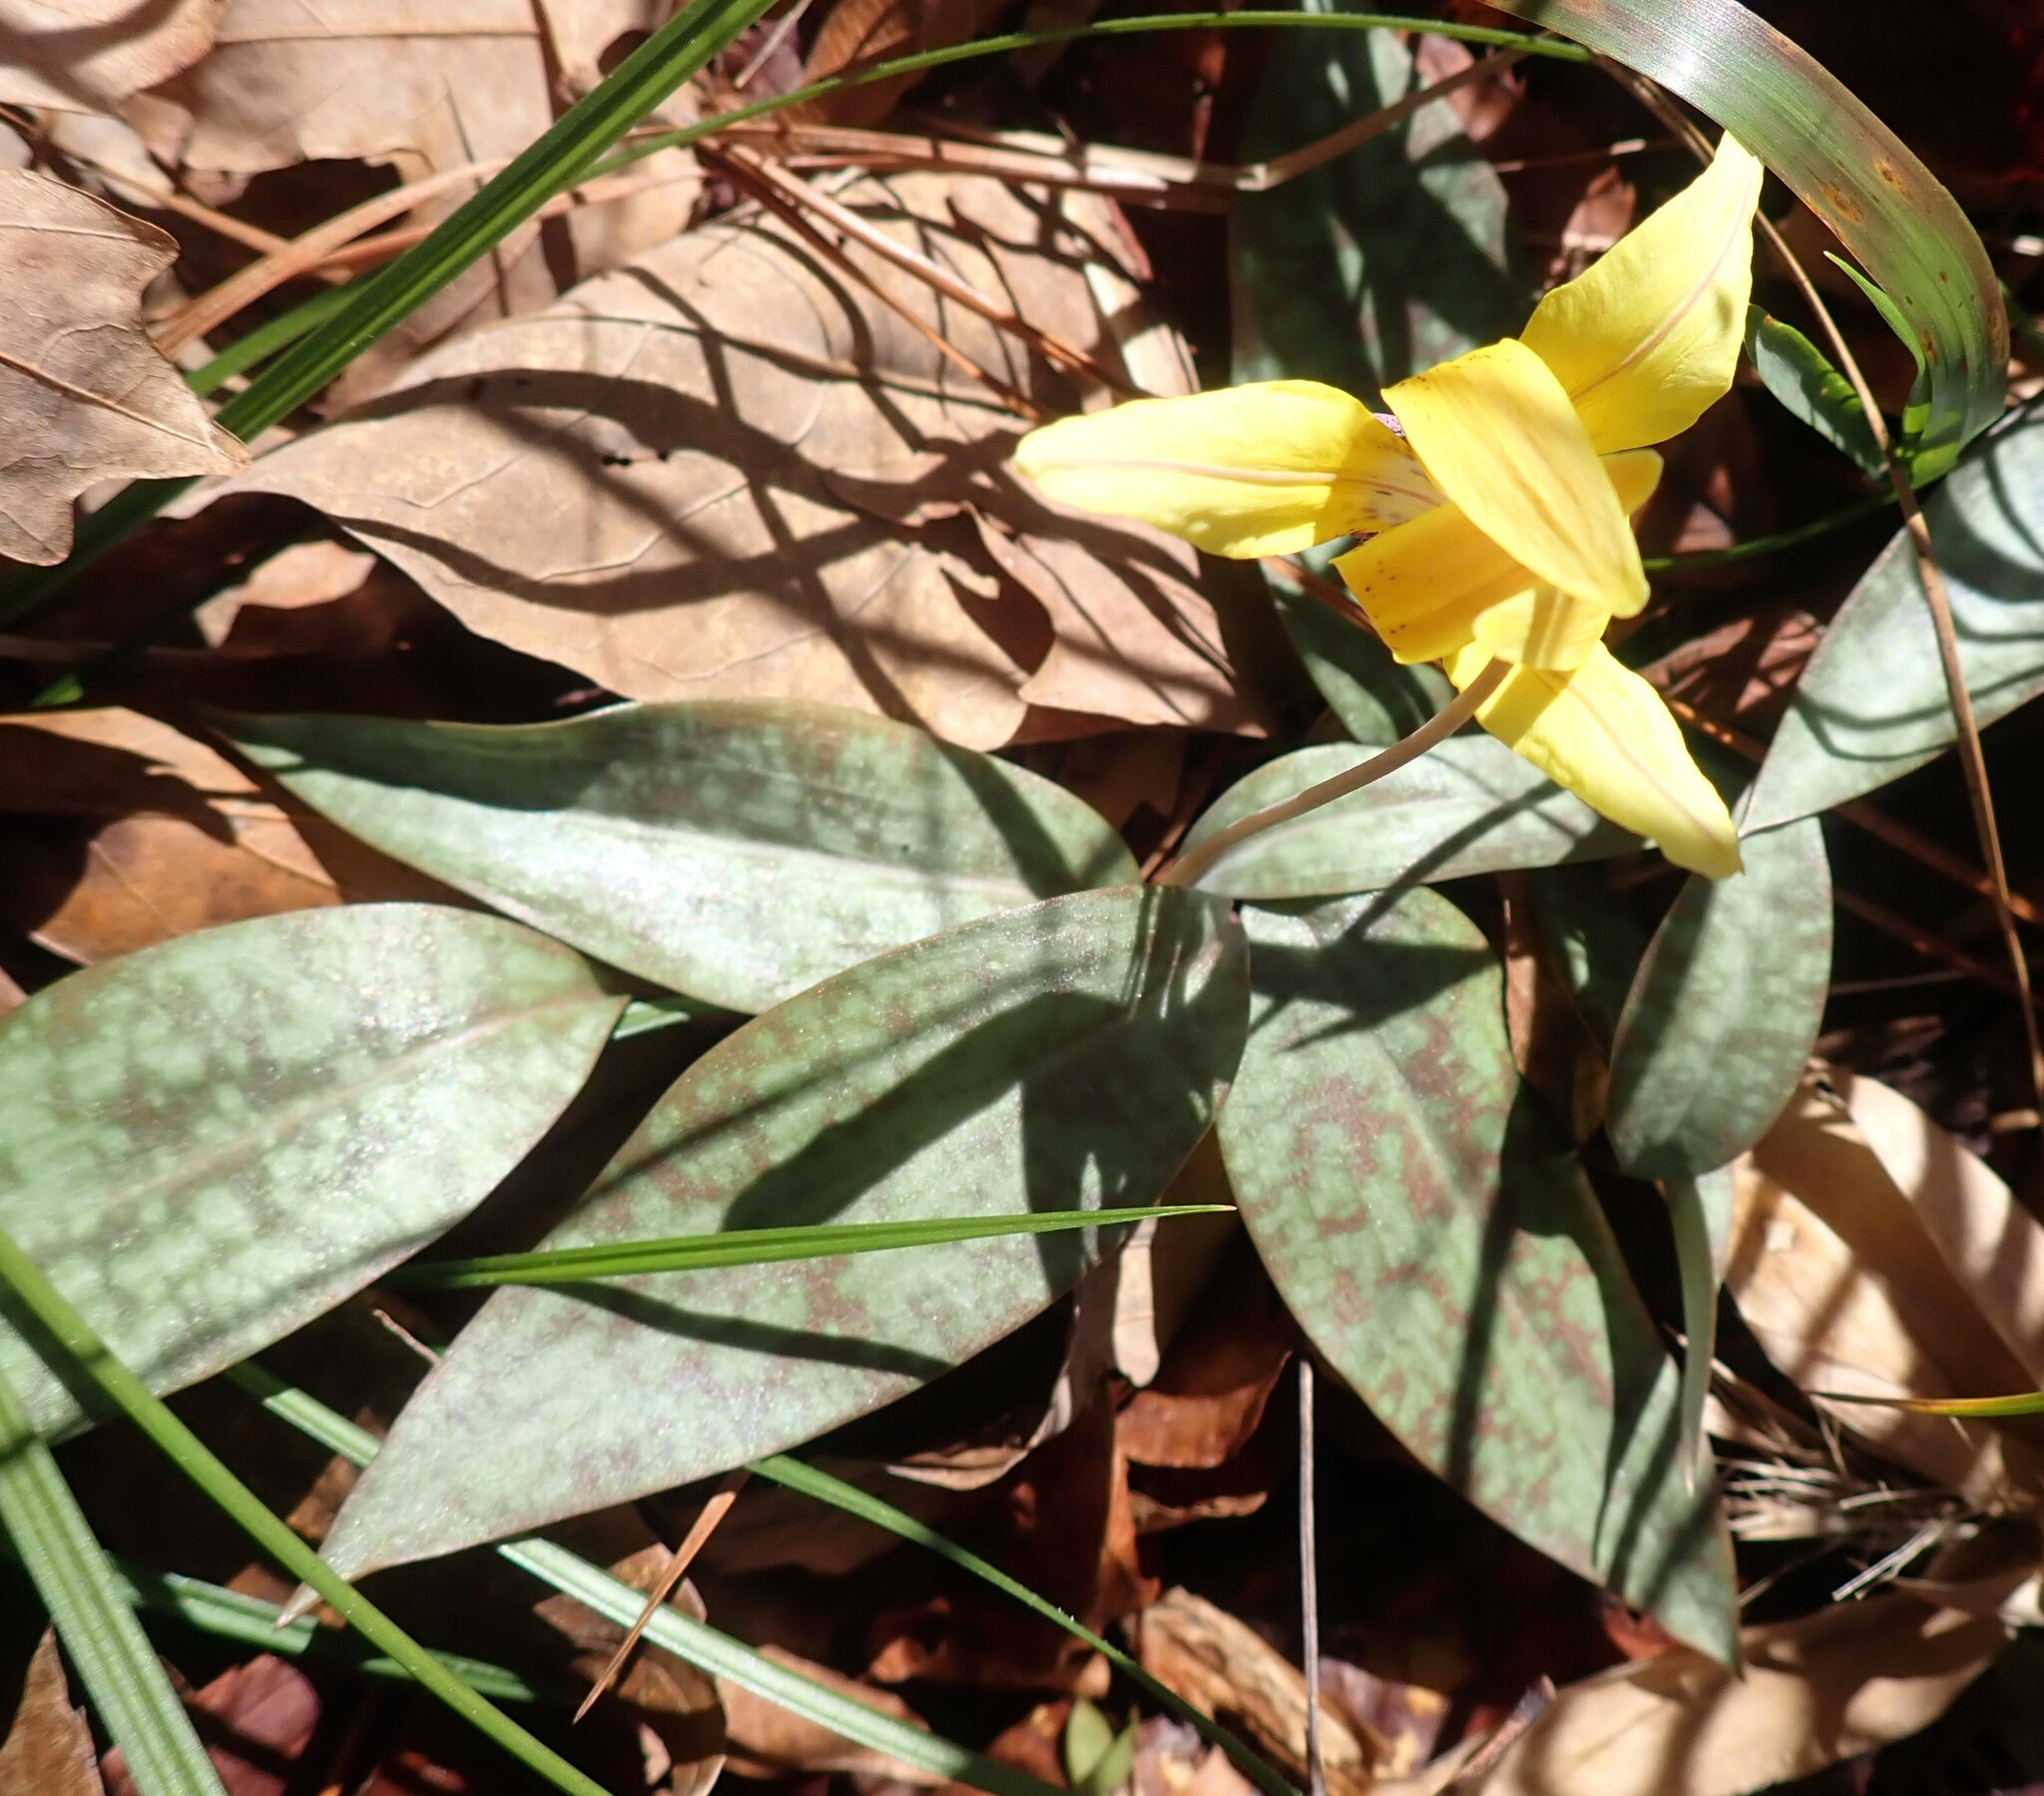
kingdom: Plantae
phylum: Tracheophyta
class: Liliopsida
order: Liliales
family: Liliaceae
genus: Erythronium
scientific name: Erythronium umbilicatum
